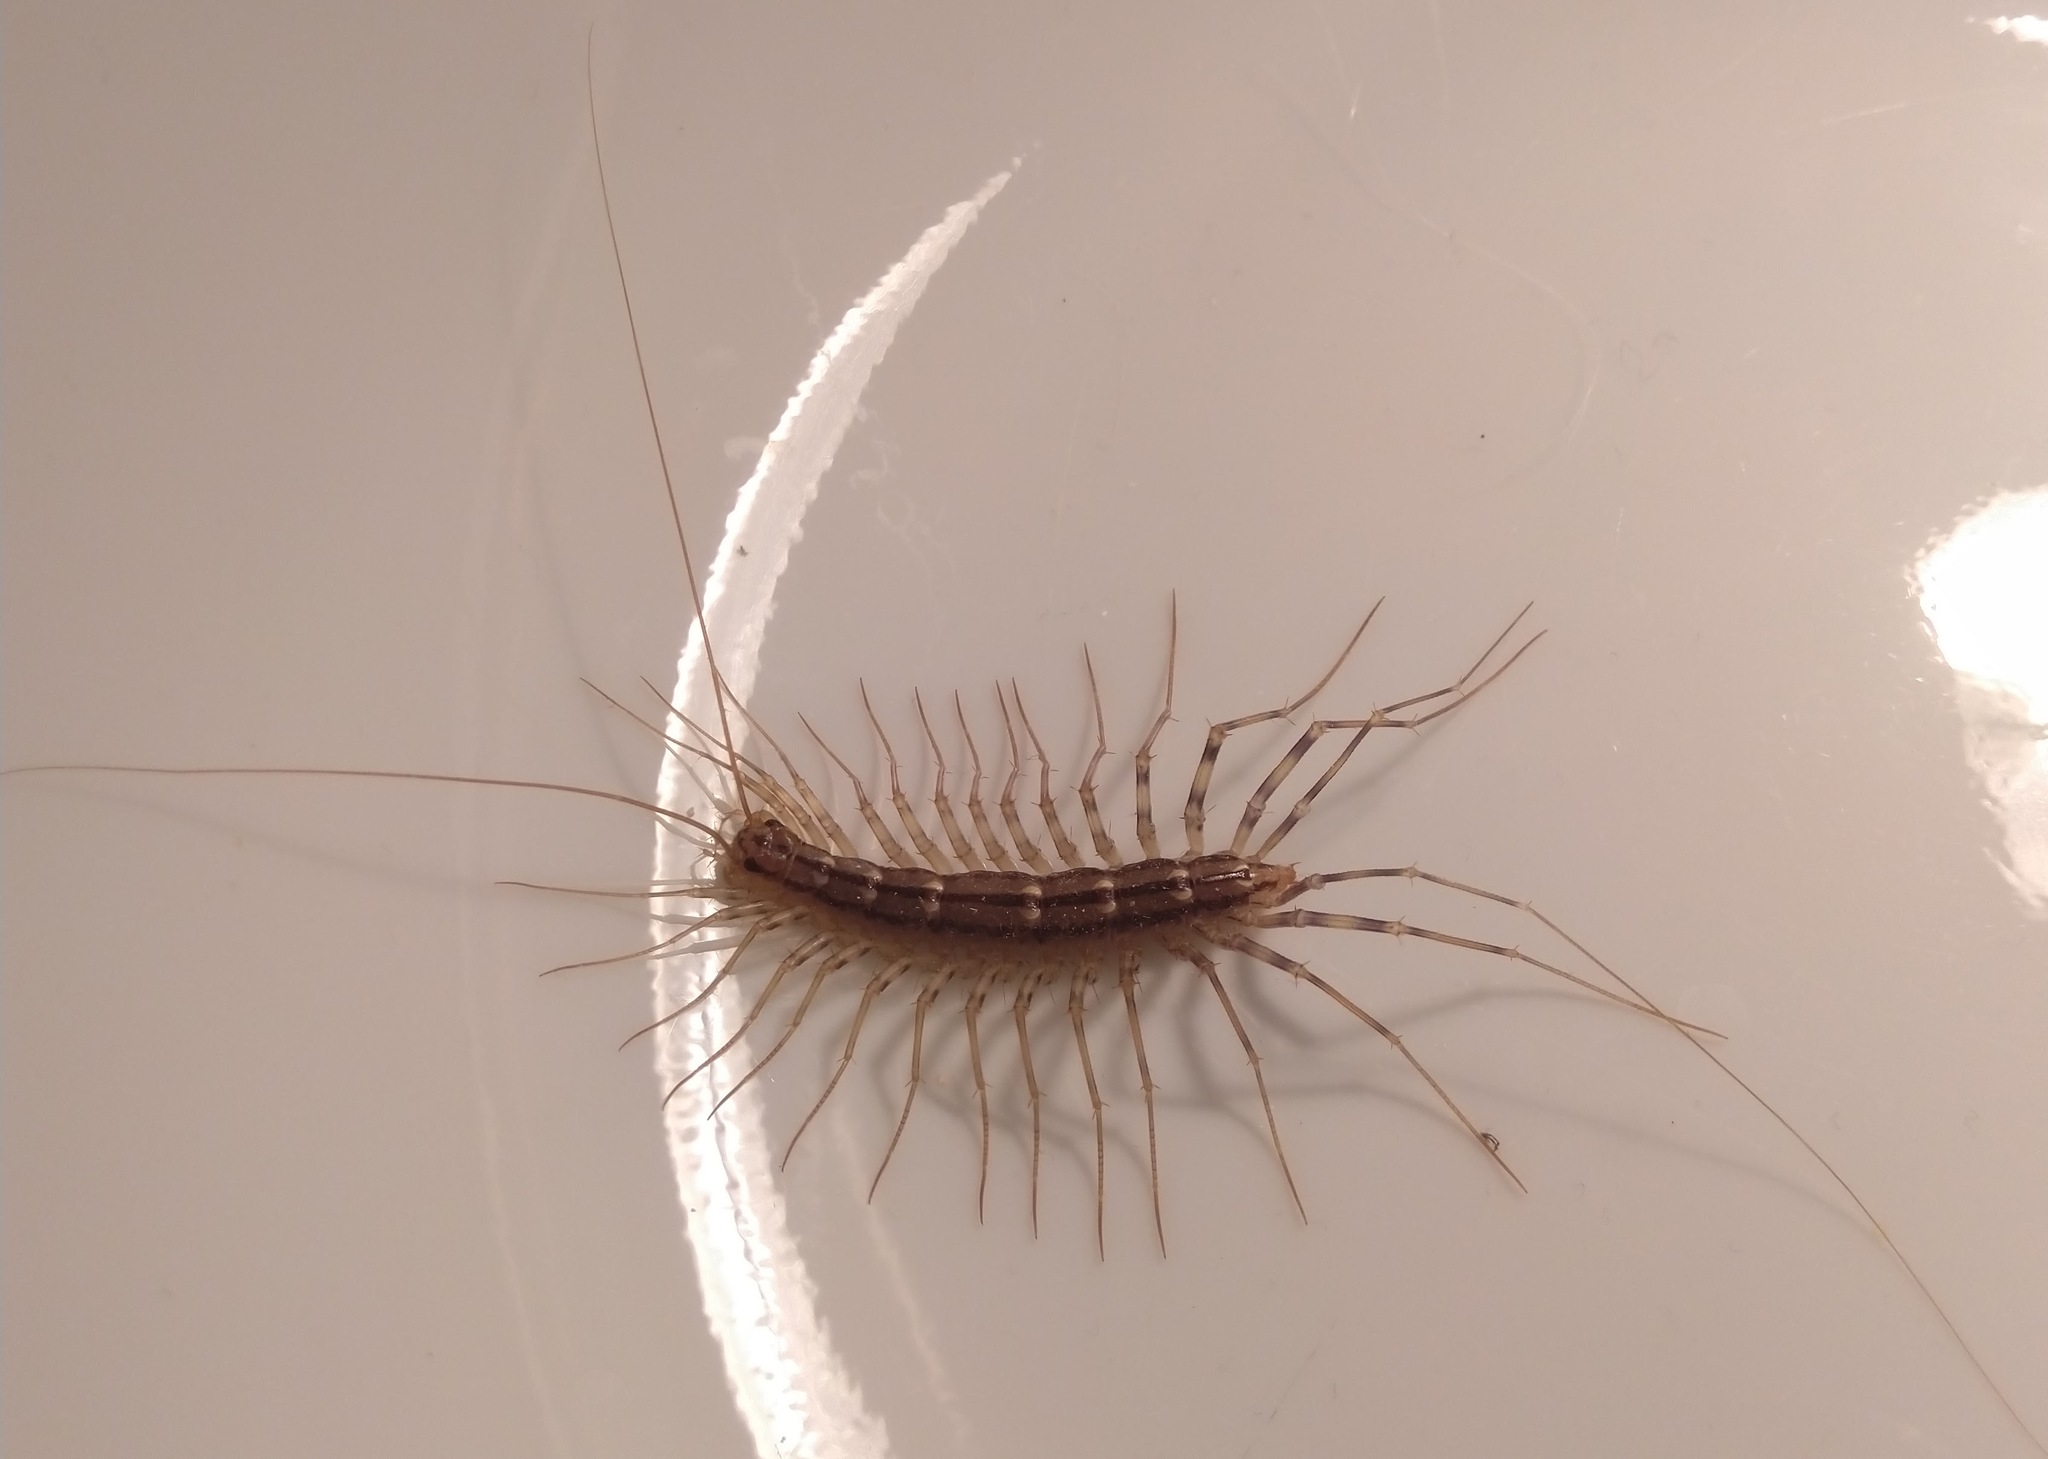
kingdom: Animalia
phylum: Arthropoda
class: Chilopoda
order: Scutigeromorpha
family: Scutigeridae
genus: Scutigera
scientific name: Scutigera coleoptrata
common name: House centipede
